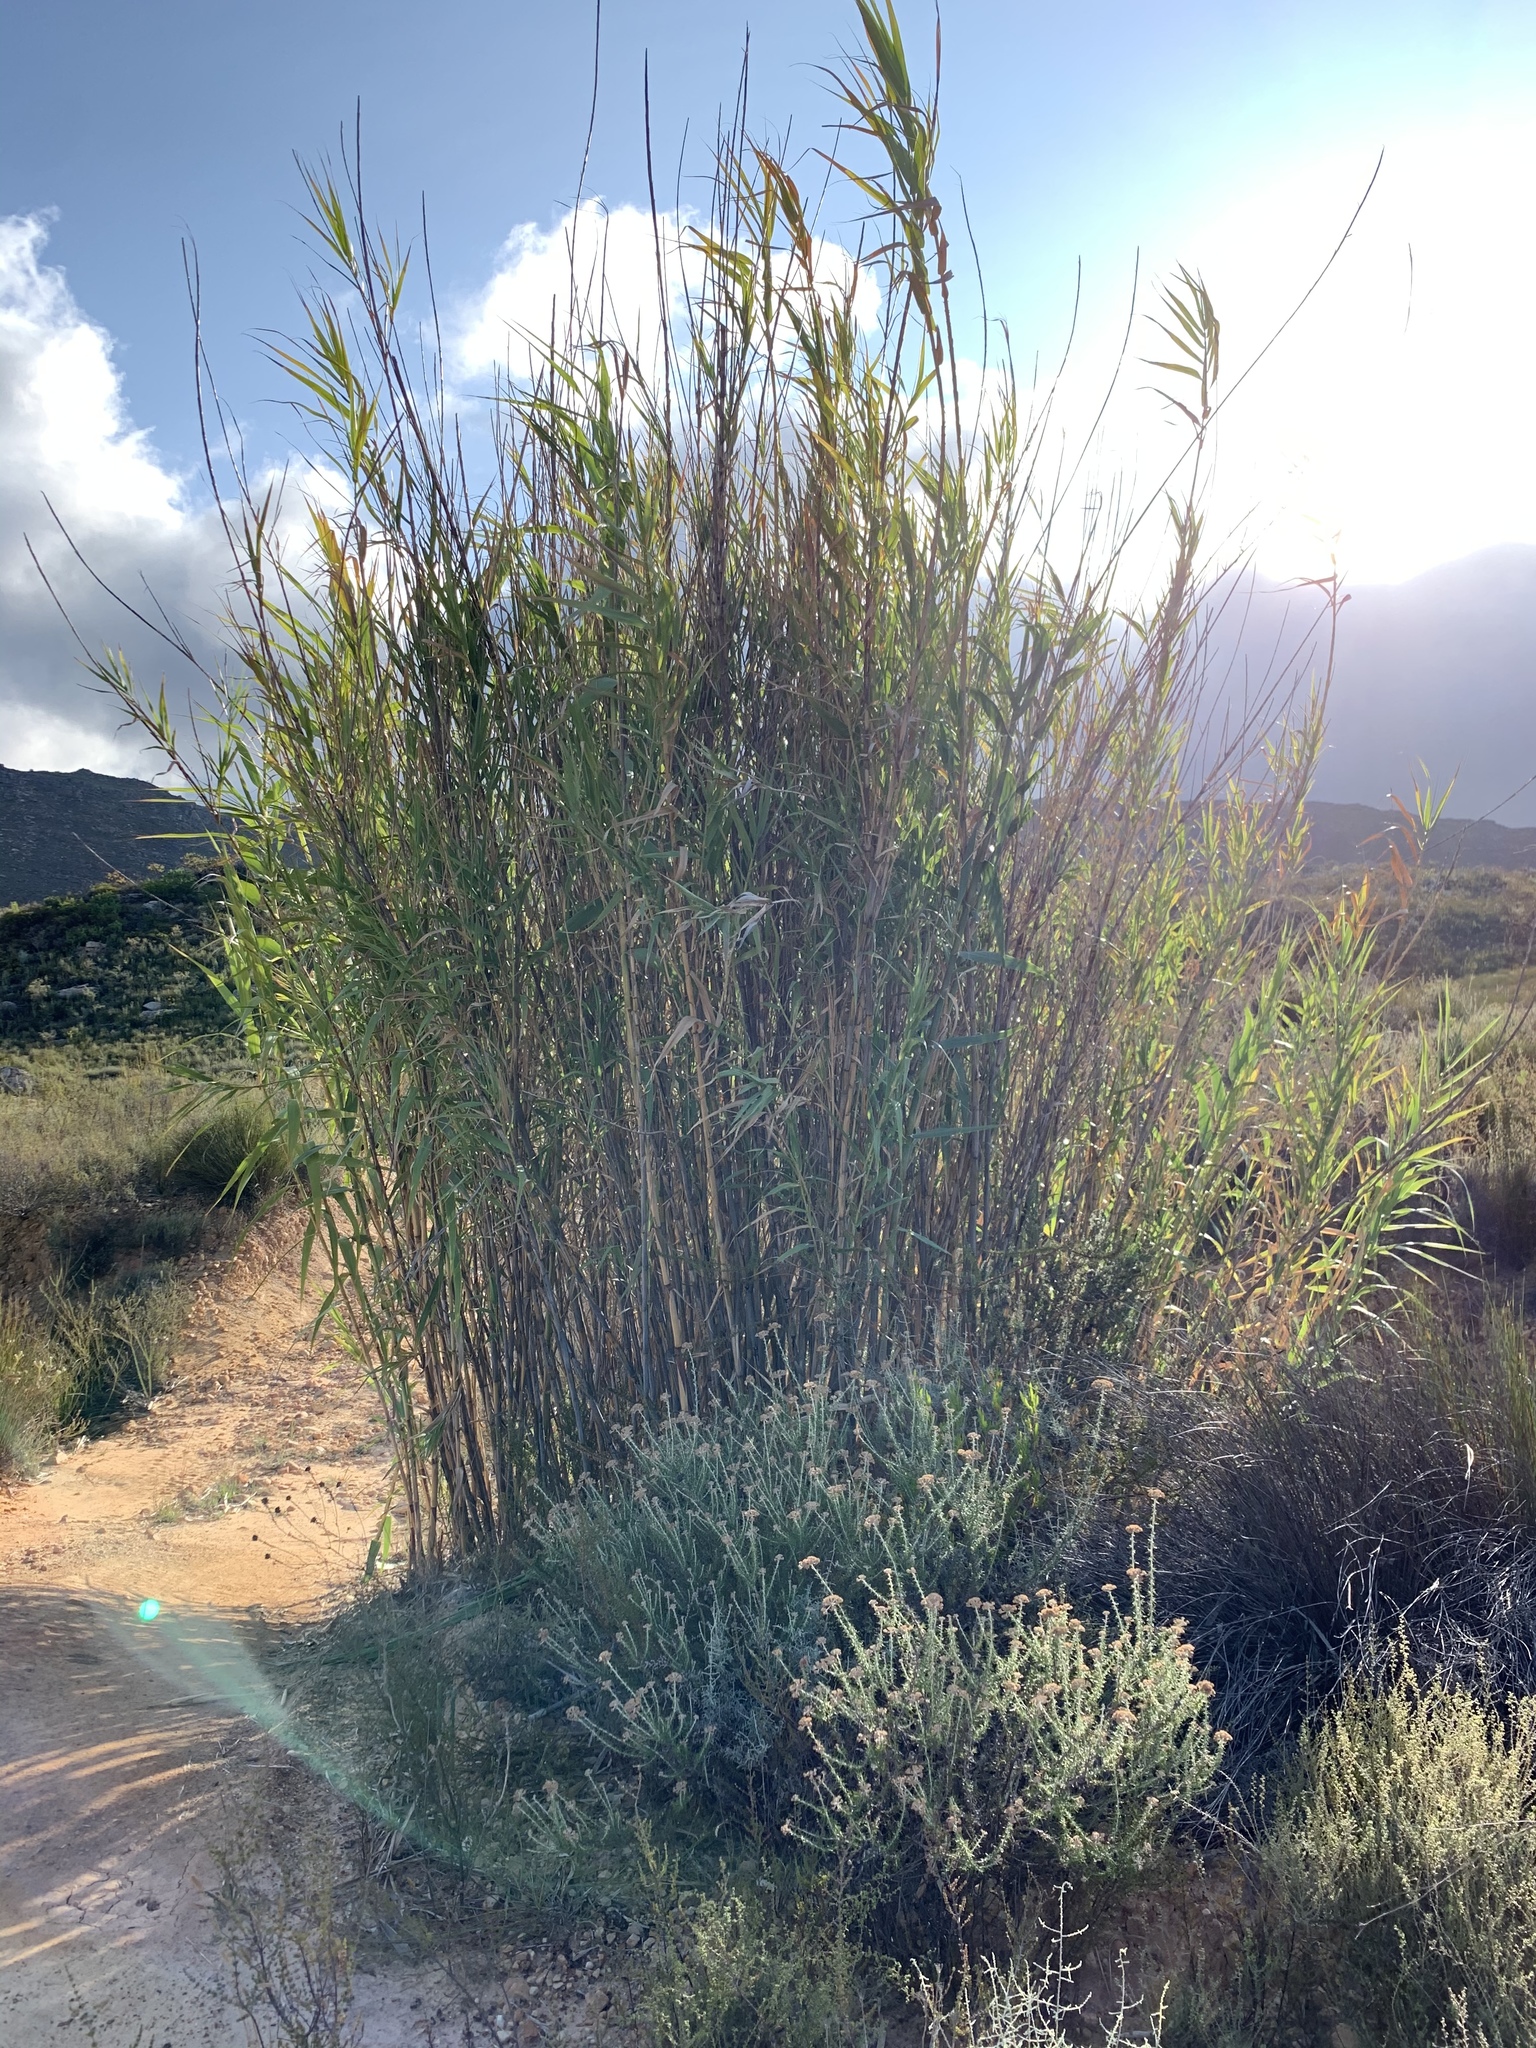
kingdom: Plantae
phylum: Tracheophyta
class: Liliopsida
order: Poales
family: Poaceae
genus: Arundo
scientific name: Arundo donax
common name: Giant reed
